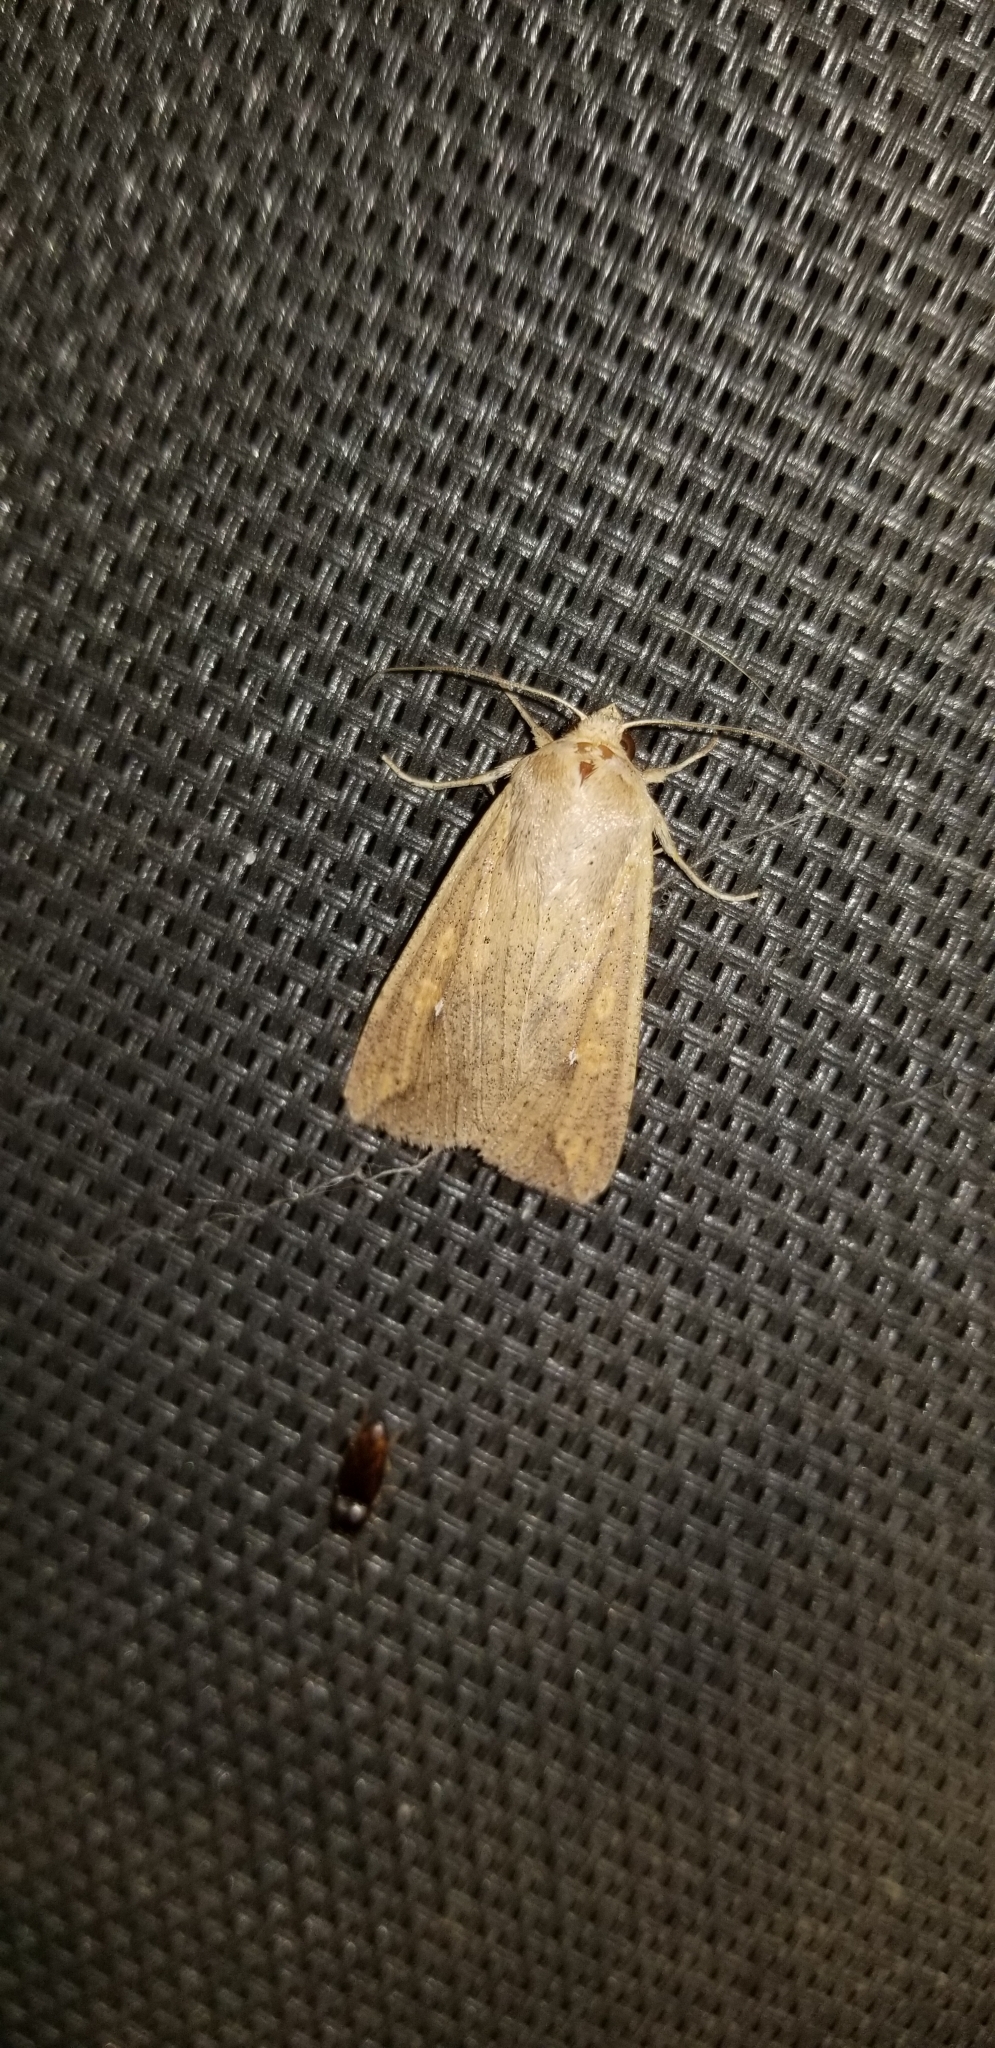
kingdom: Animalia
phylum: Arthropoda
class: Insecta
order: Lepidoptera
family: Noctuidae
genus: Mythimna
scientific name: Mythimna unipuncta
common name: White-speck
